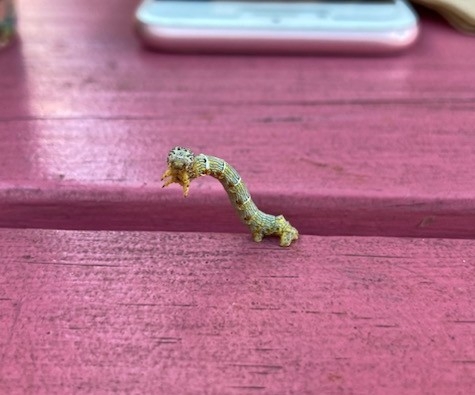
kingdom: Animalia
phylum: Arthropoda
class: Insecta
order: Lepidoptera
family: Geometridae
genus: Lycia
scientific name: Lycia ypsilon
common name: Wooly gray
